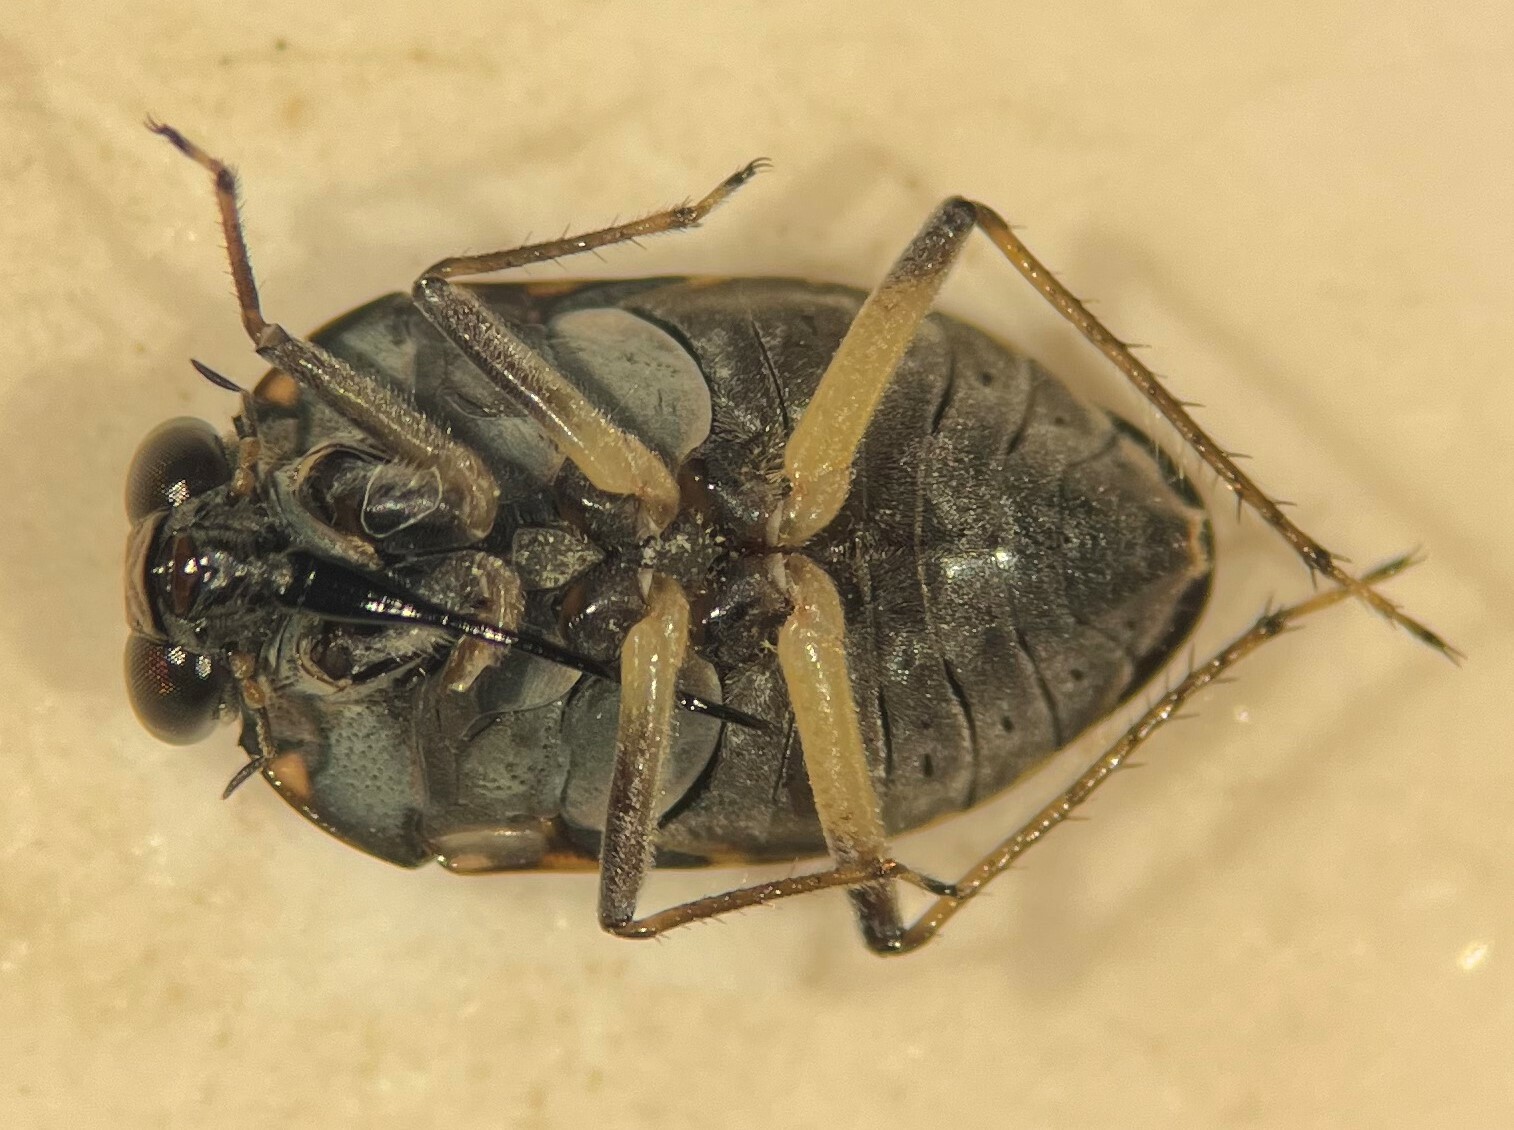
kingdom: Animalia
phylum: Arthropoda
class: Insecta
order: Hemiptera
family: Ochteridae
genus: Ochterus
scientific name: Ochterus perbosci
